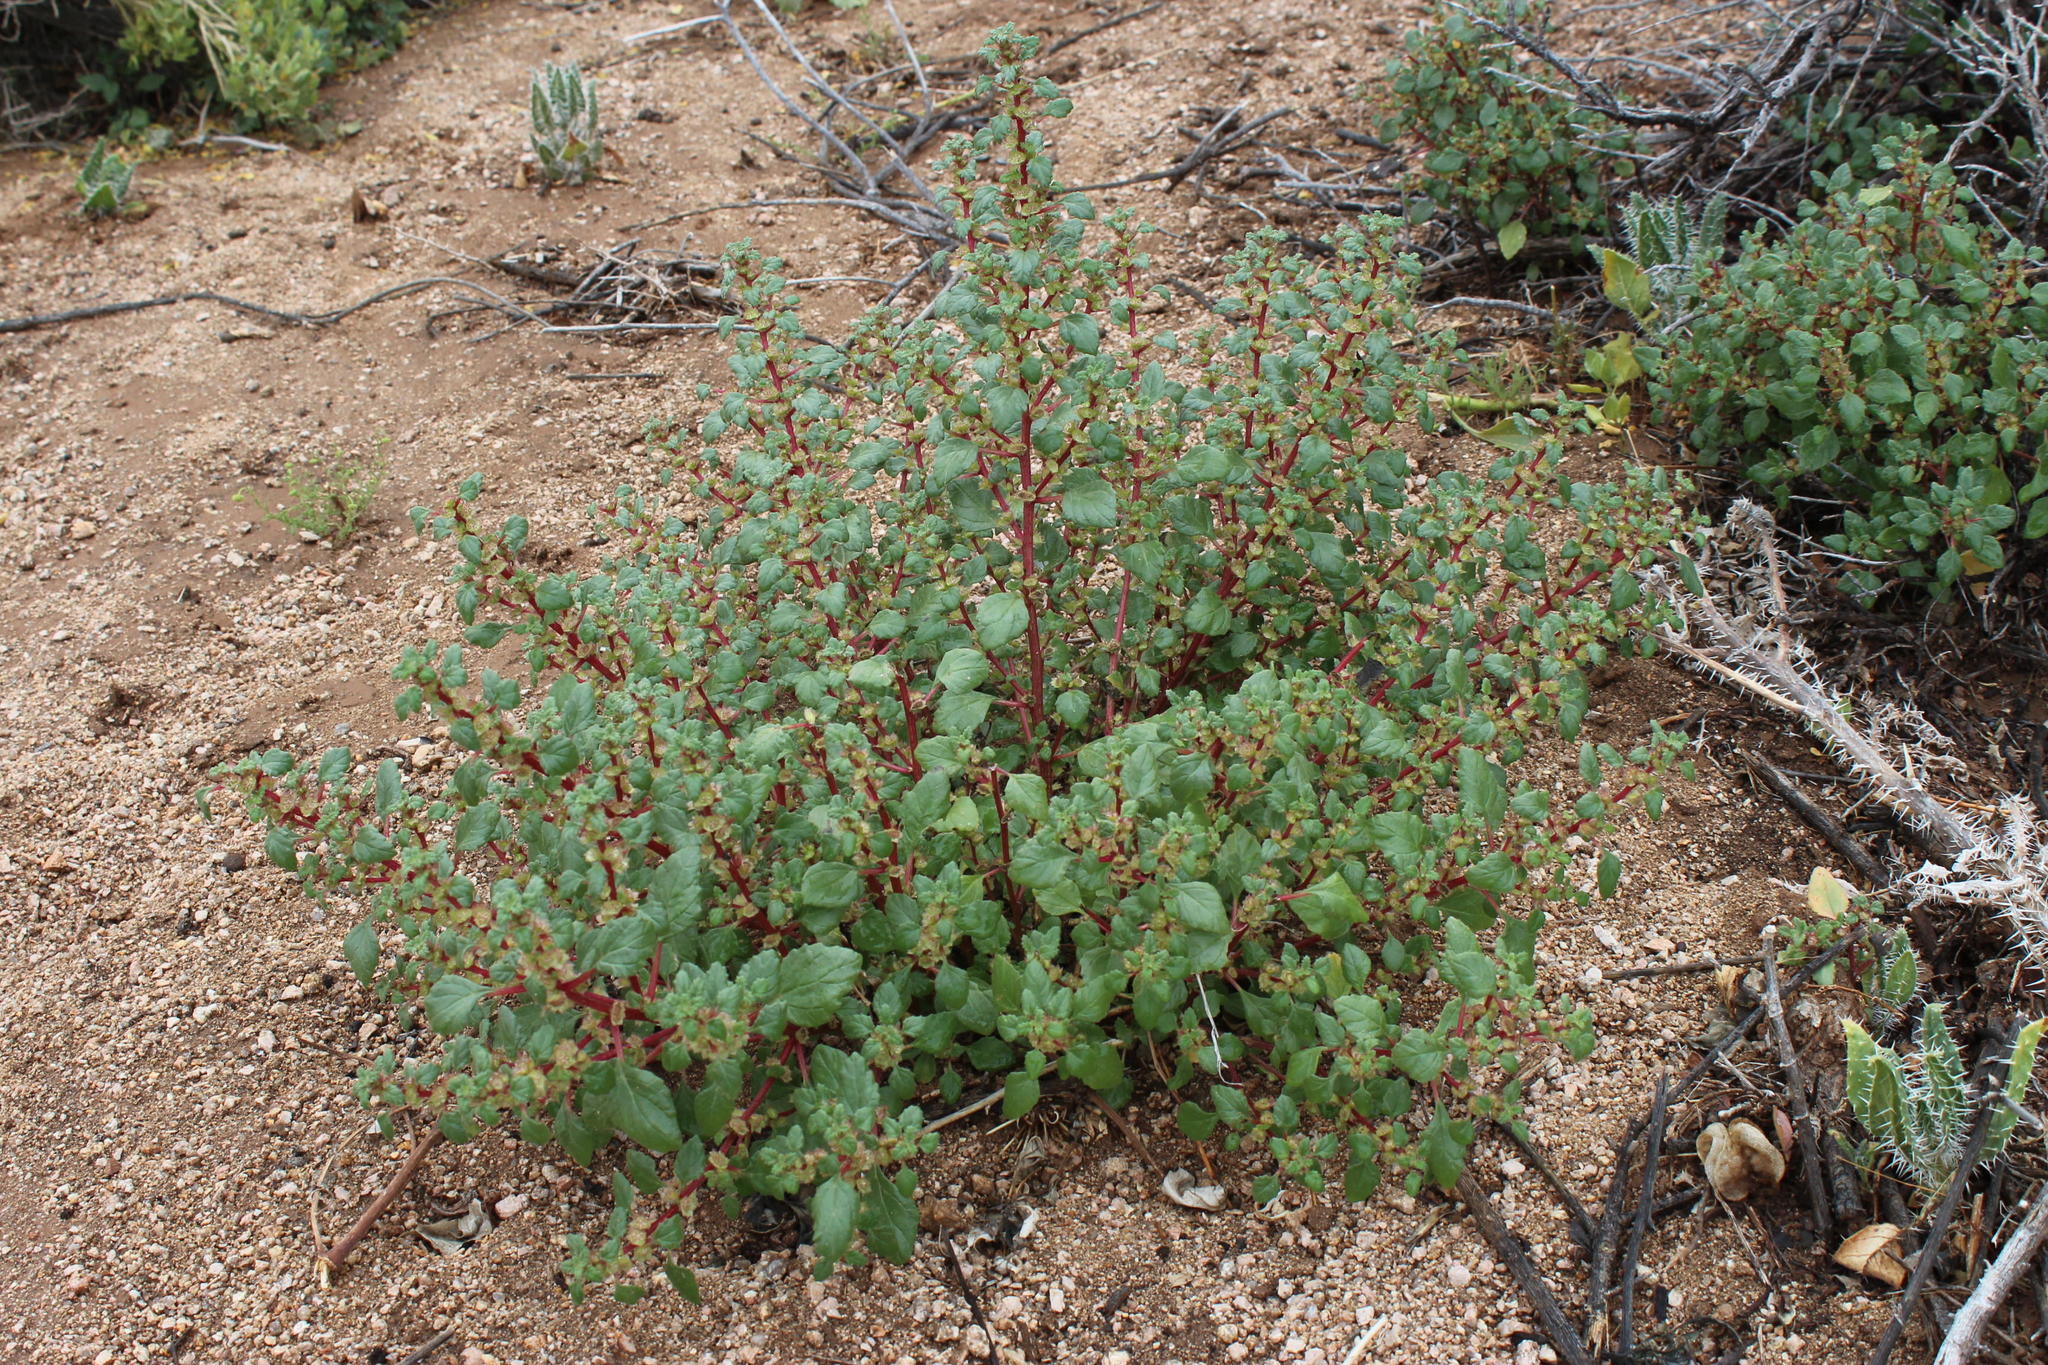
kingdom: Plantae
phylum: Tracheophyta
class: Magnoliopsida
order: Rosales
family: Urticaceae
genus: Forsskaolea
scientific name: Forsskaolea candida
